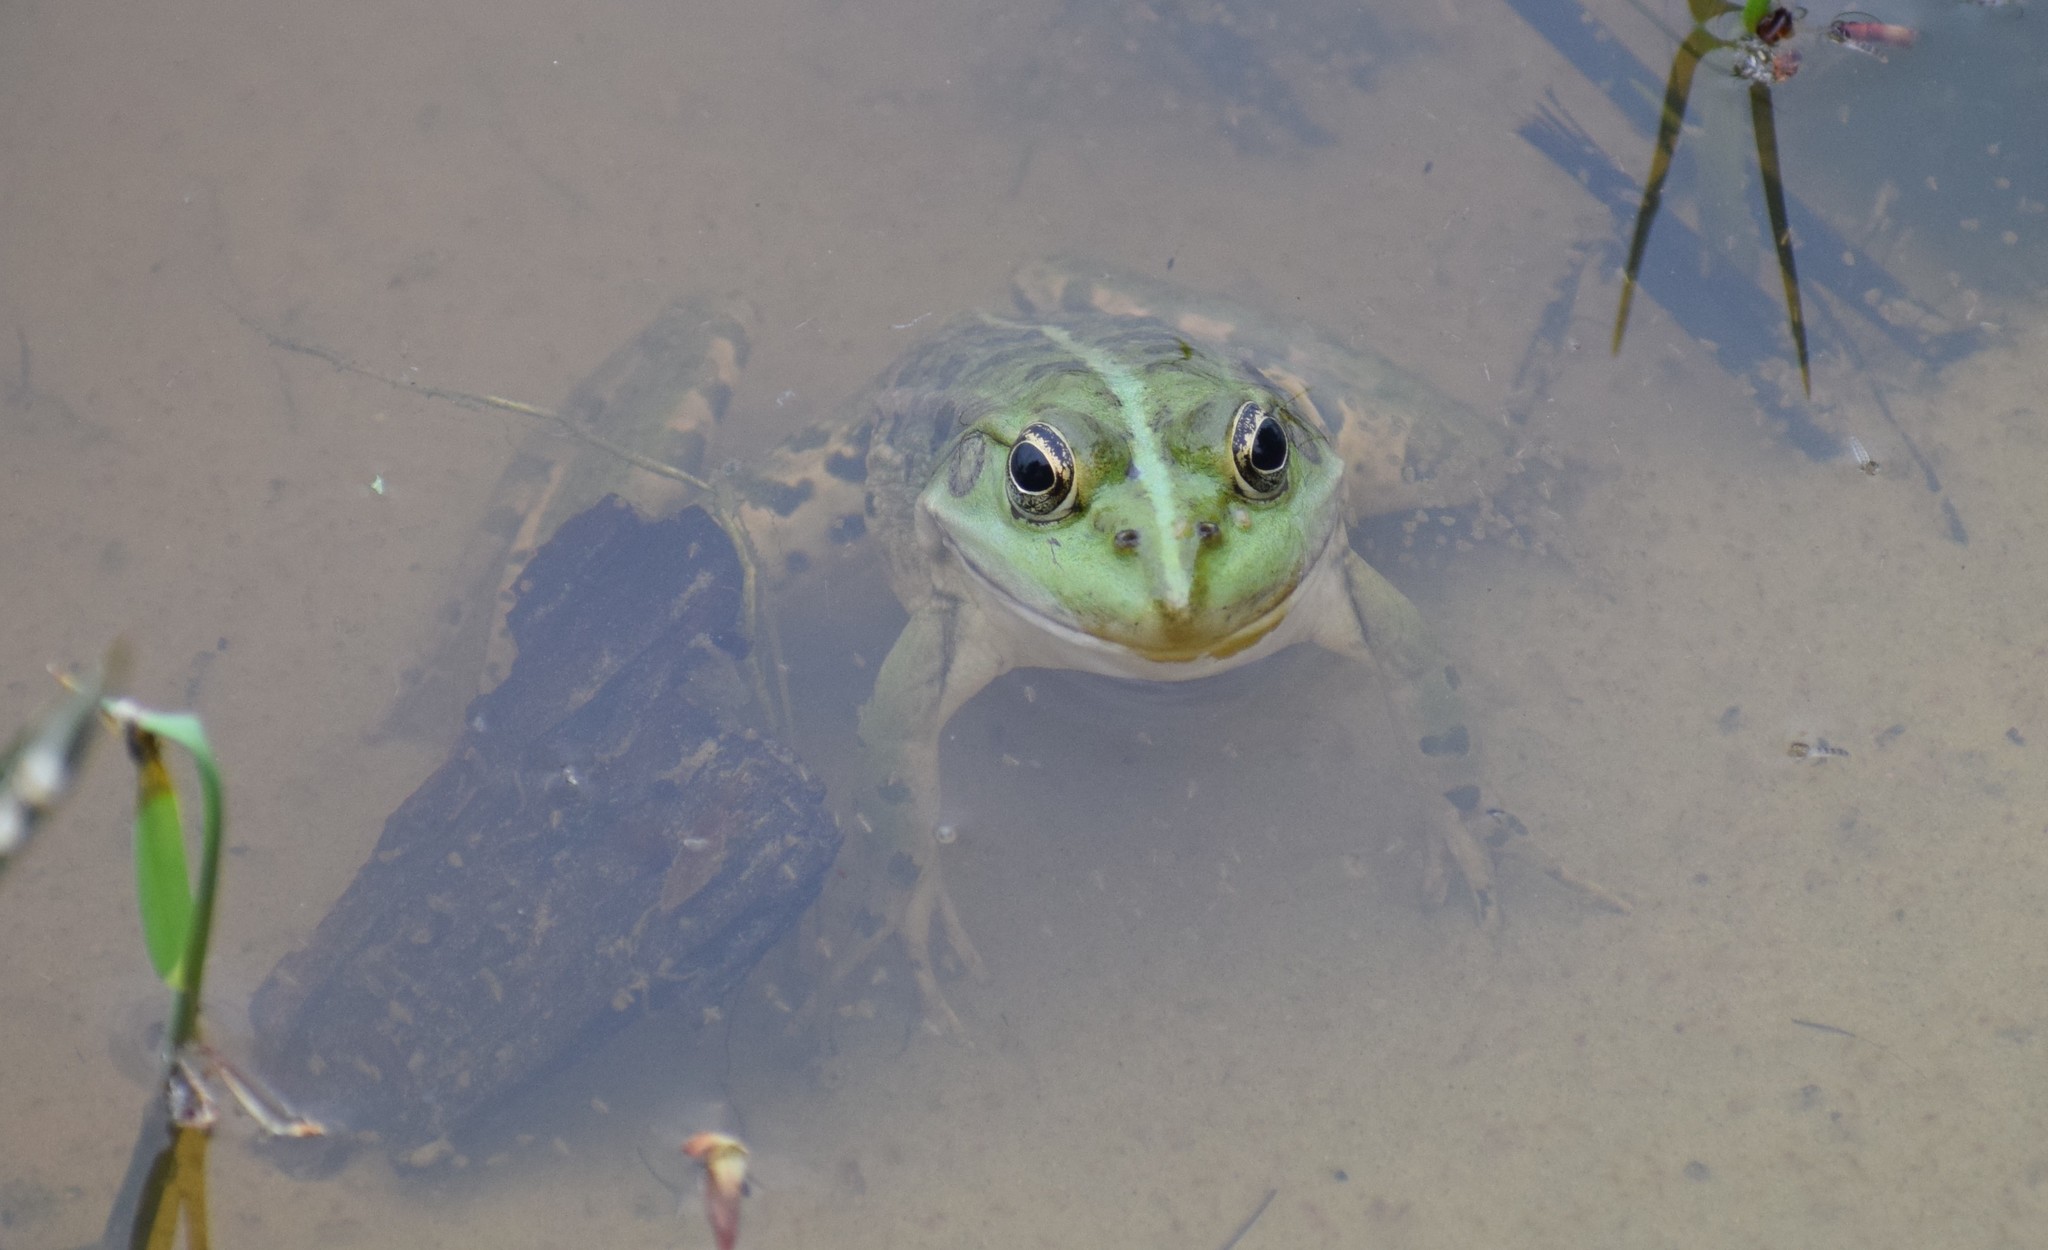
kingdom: Animalia
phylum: Chordata
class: Amphibia
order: Anura
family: Ranidae
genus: Pelophylax
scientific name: Pelophylax
